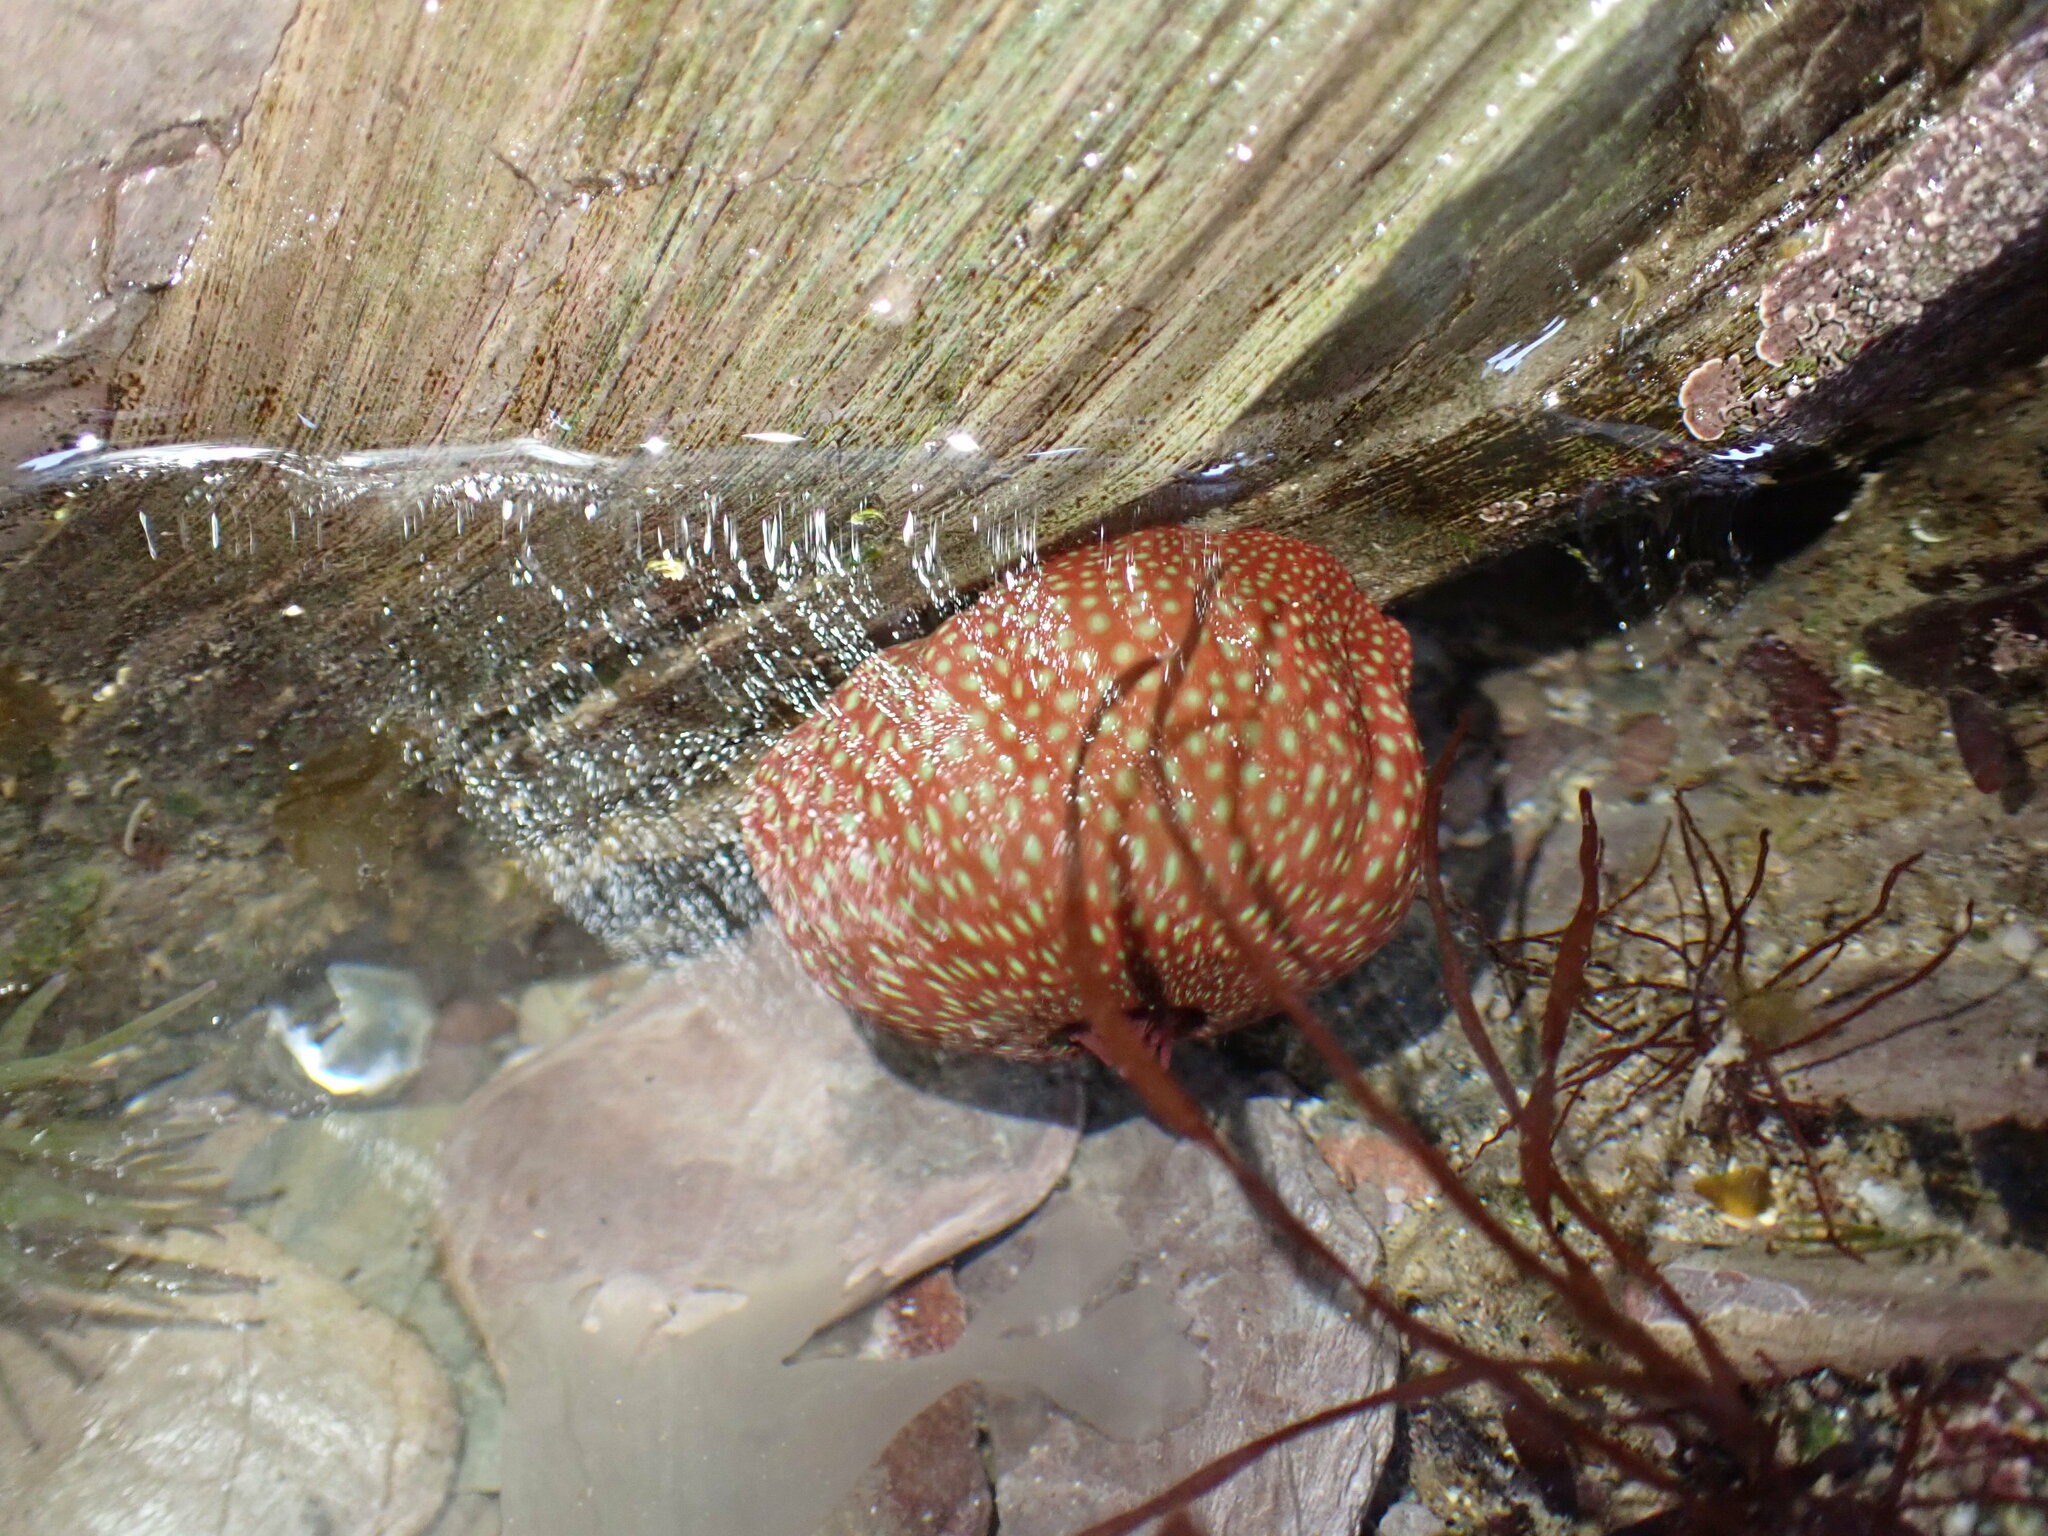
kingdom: Animalia
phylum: Cnidaria
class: Anthozoa
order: Actiniaria
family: Actiniidae
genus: Actinia
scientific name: Actinia fragacea
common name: Strawberry anemone
